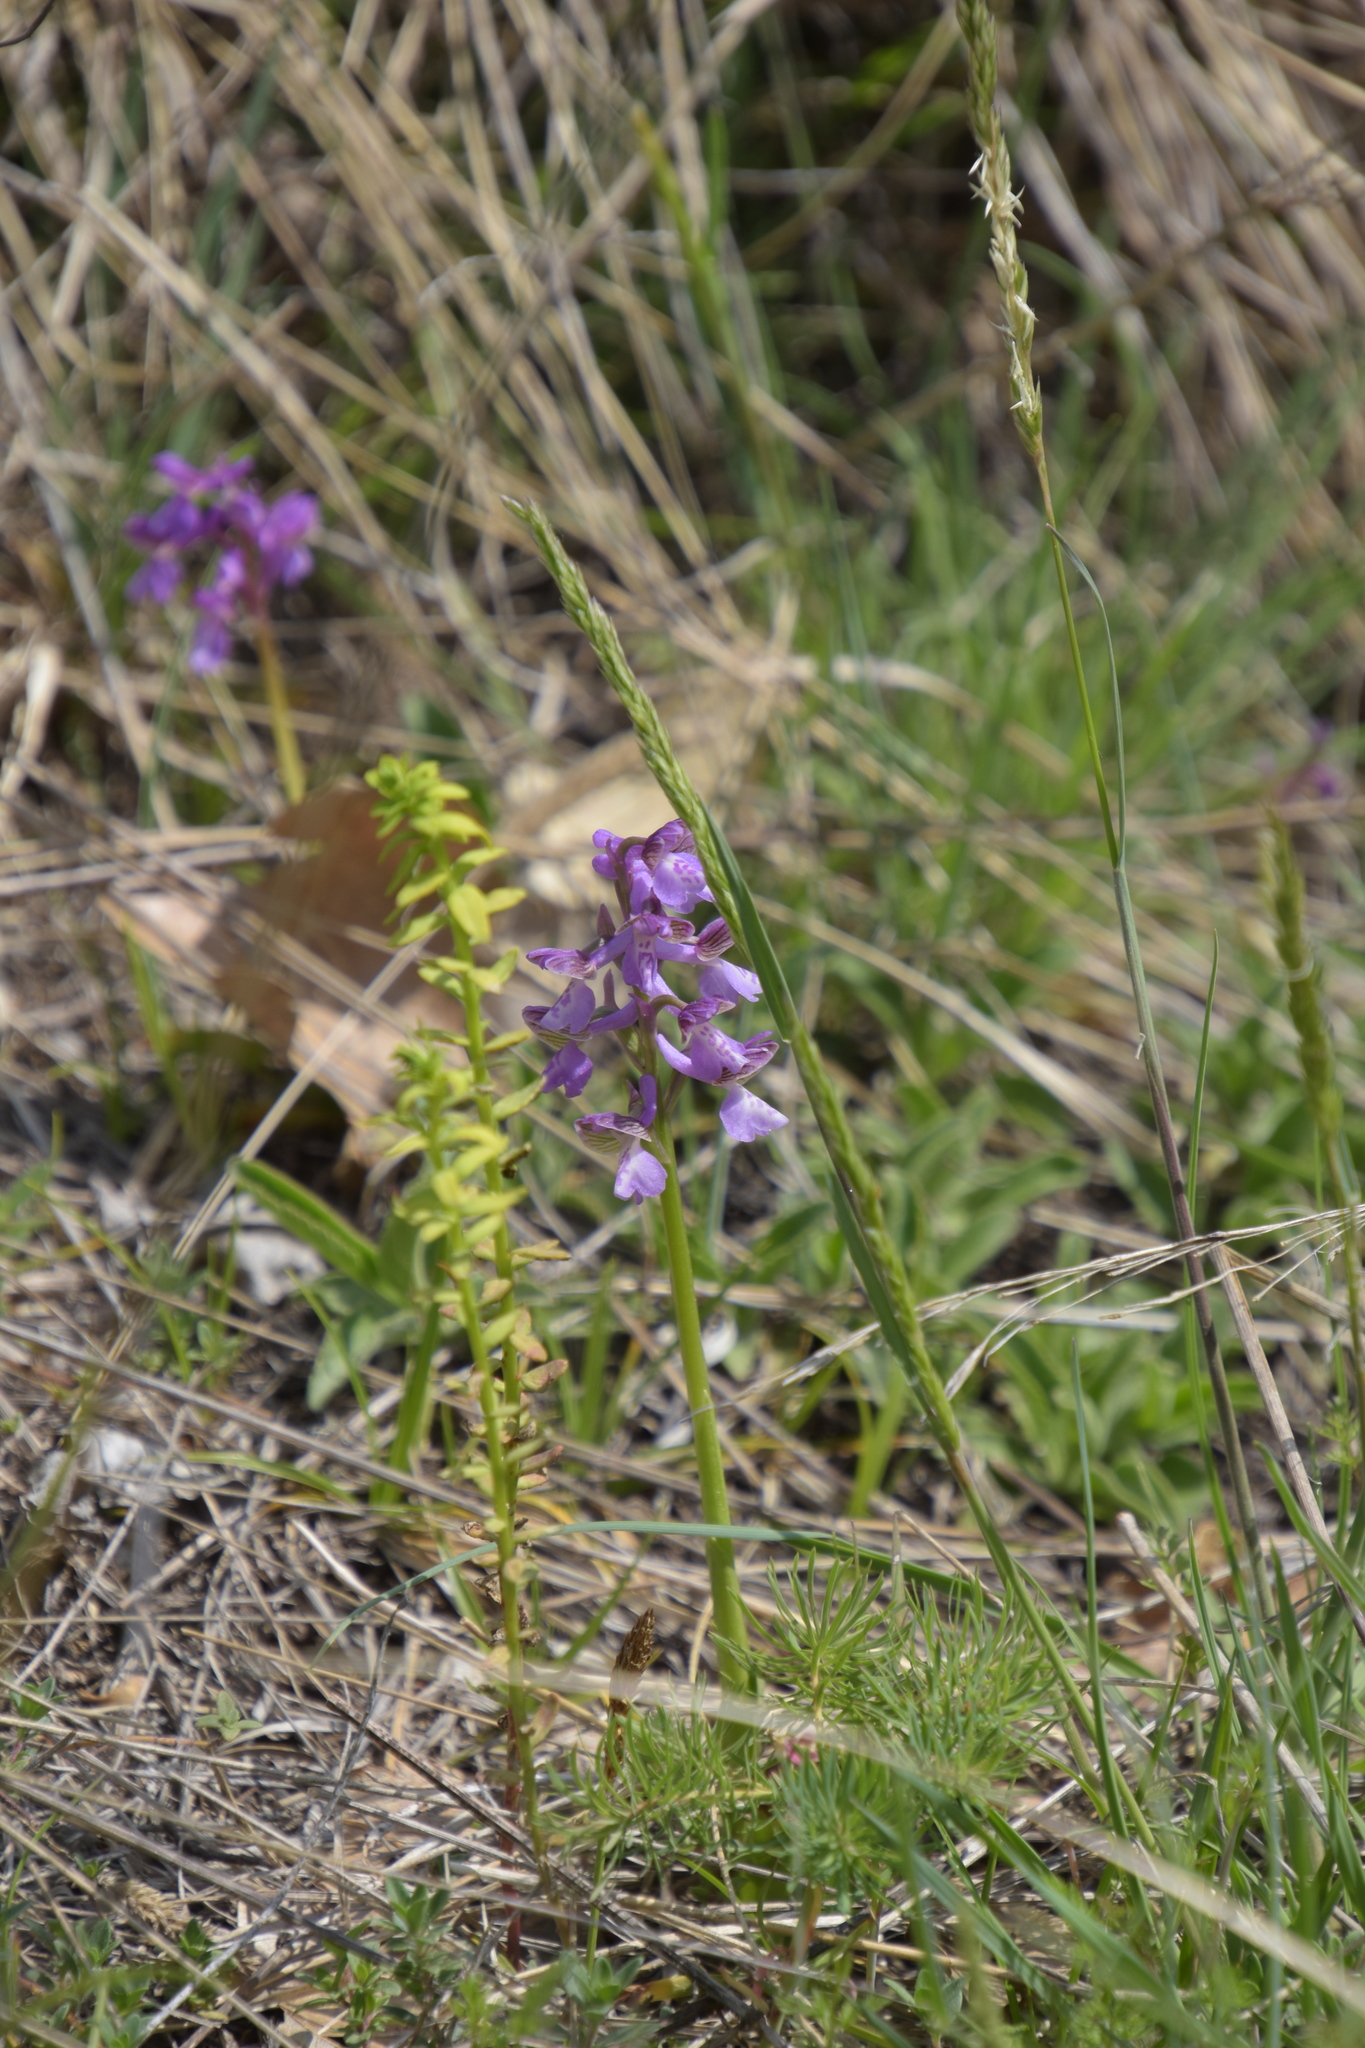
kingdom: Plantae
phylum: Tracheophyta
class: Liliopsida
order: Asparagales
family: Orchidaceae
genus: Anacamptis
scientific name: Anacamptis morio
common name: Green-winged orchid
